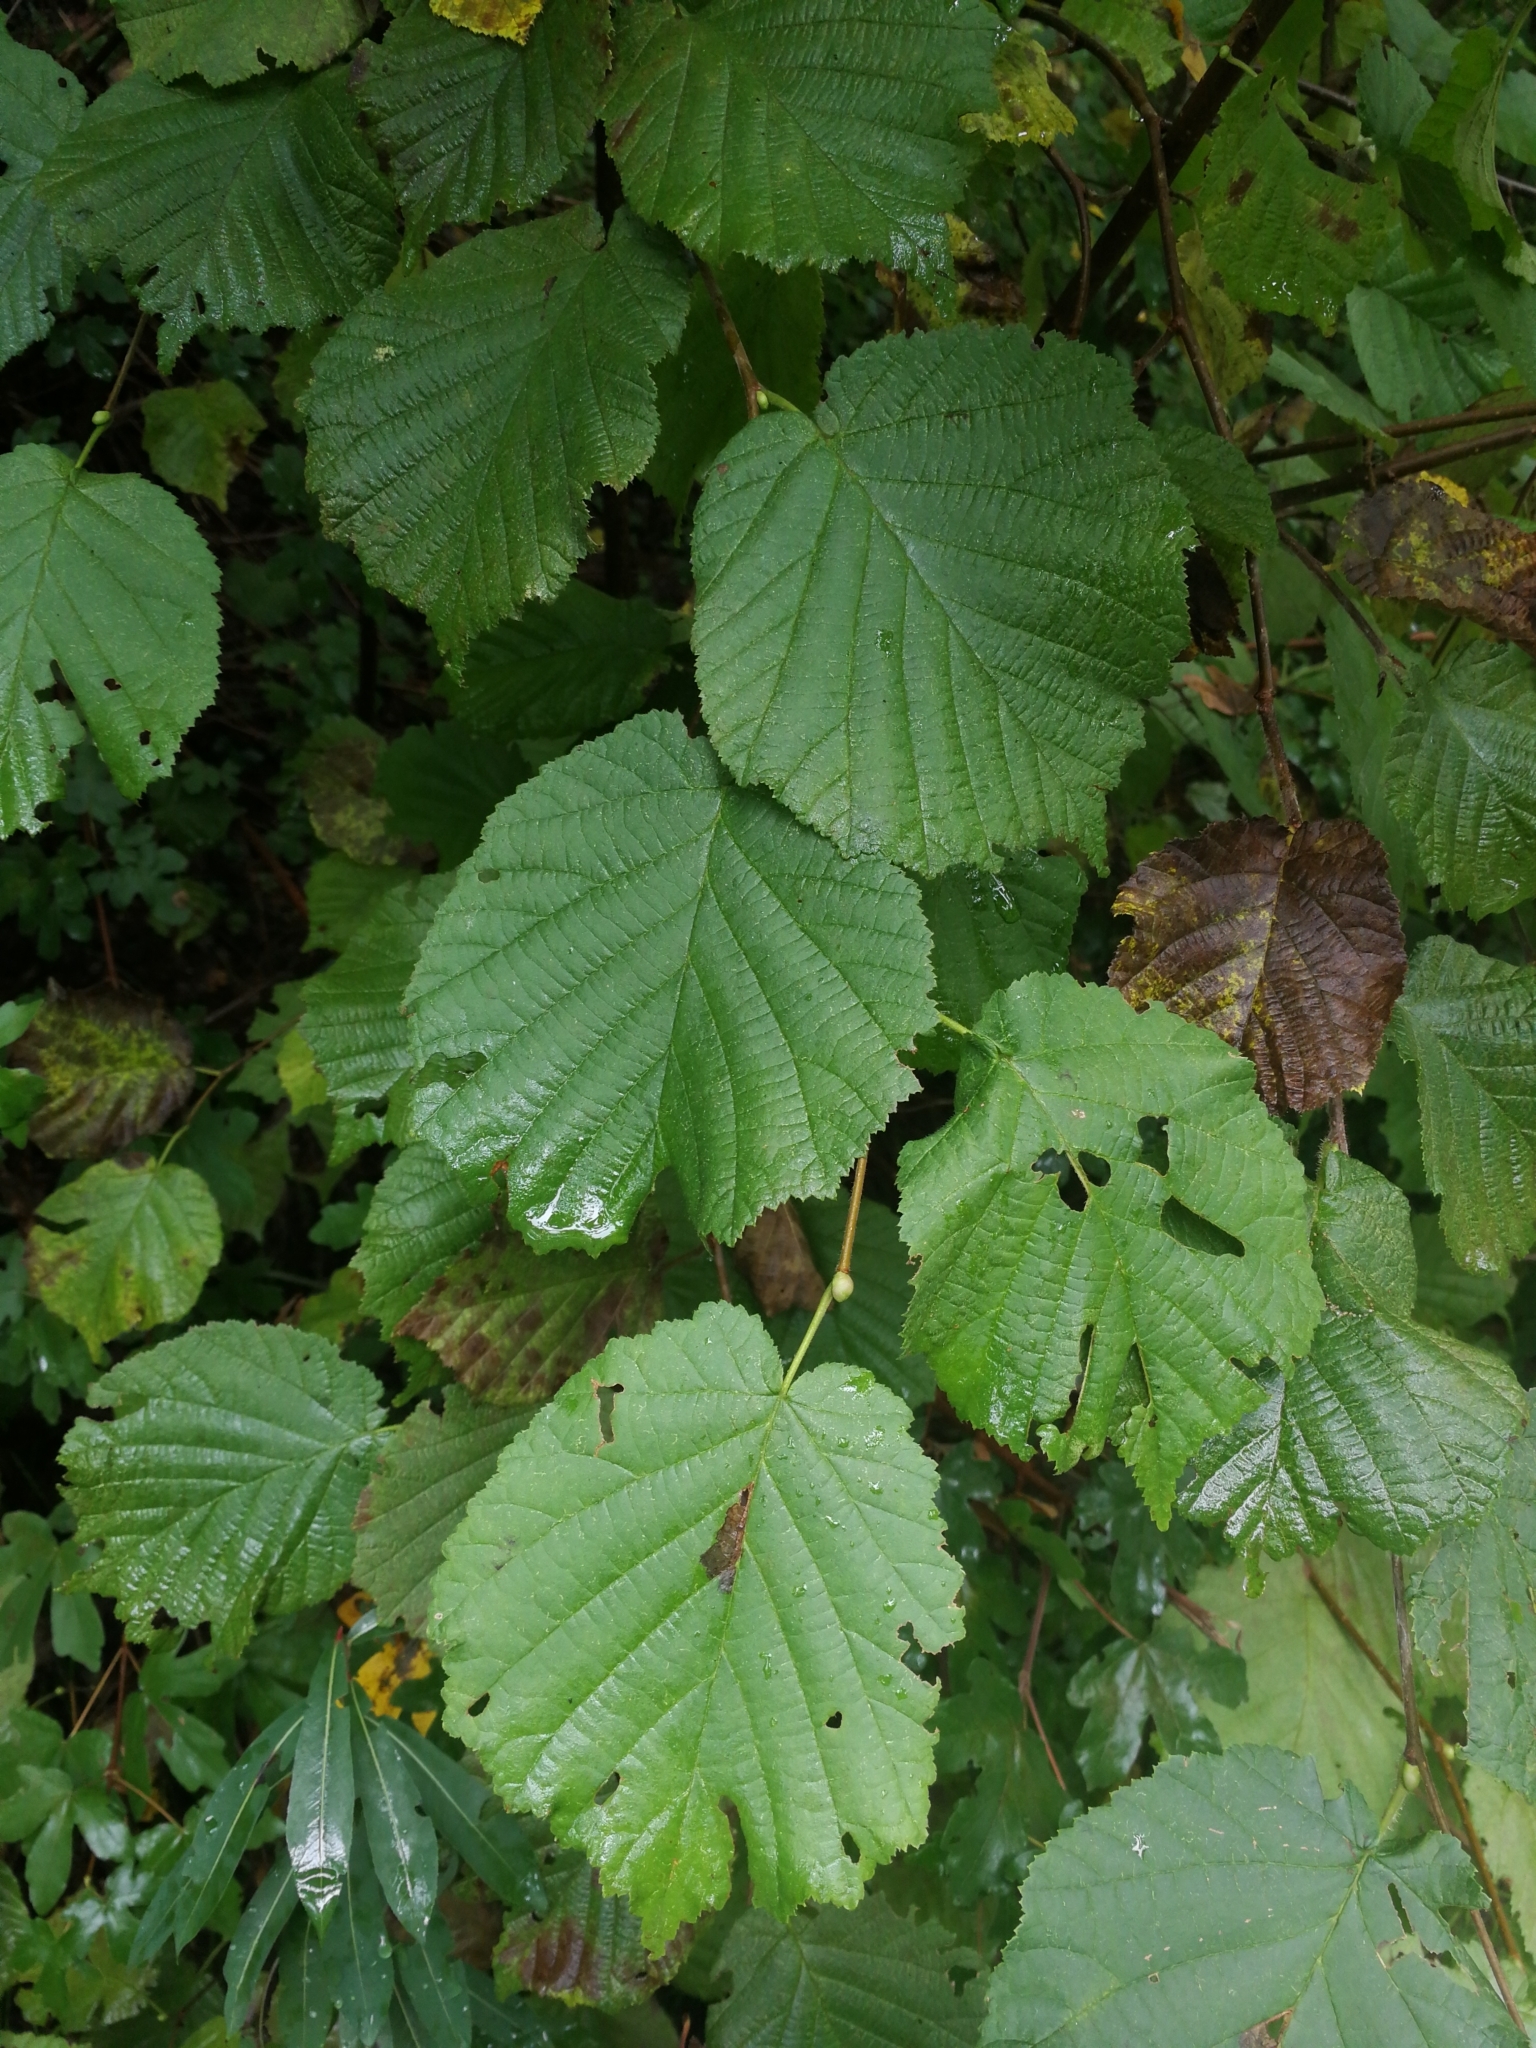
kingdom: Plantae
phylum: Tracheophyta
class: Magnoliopsida
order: Fagales
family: Betulaceae
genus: Corylus
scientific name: Corylus avellana
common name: European hazel
